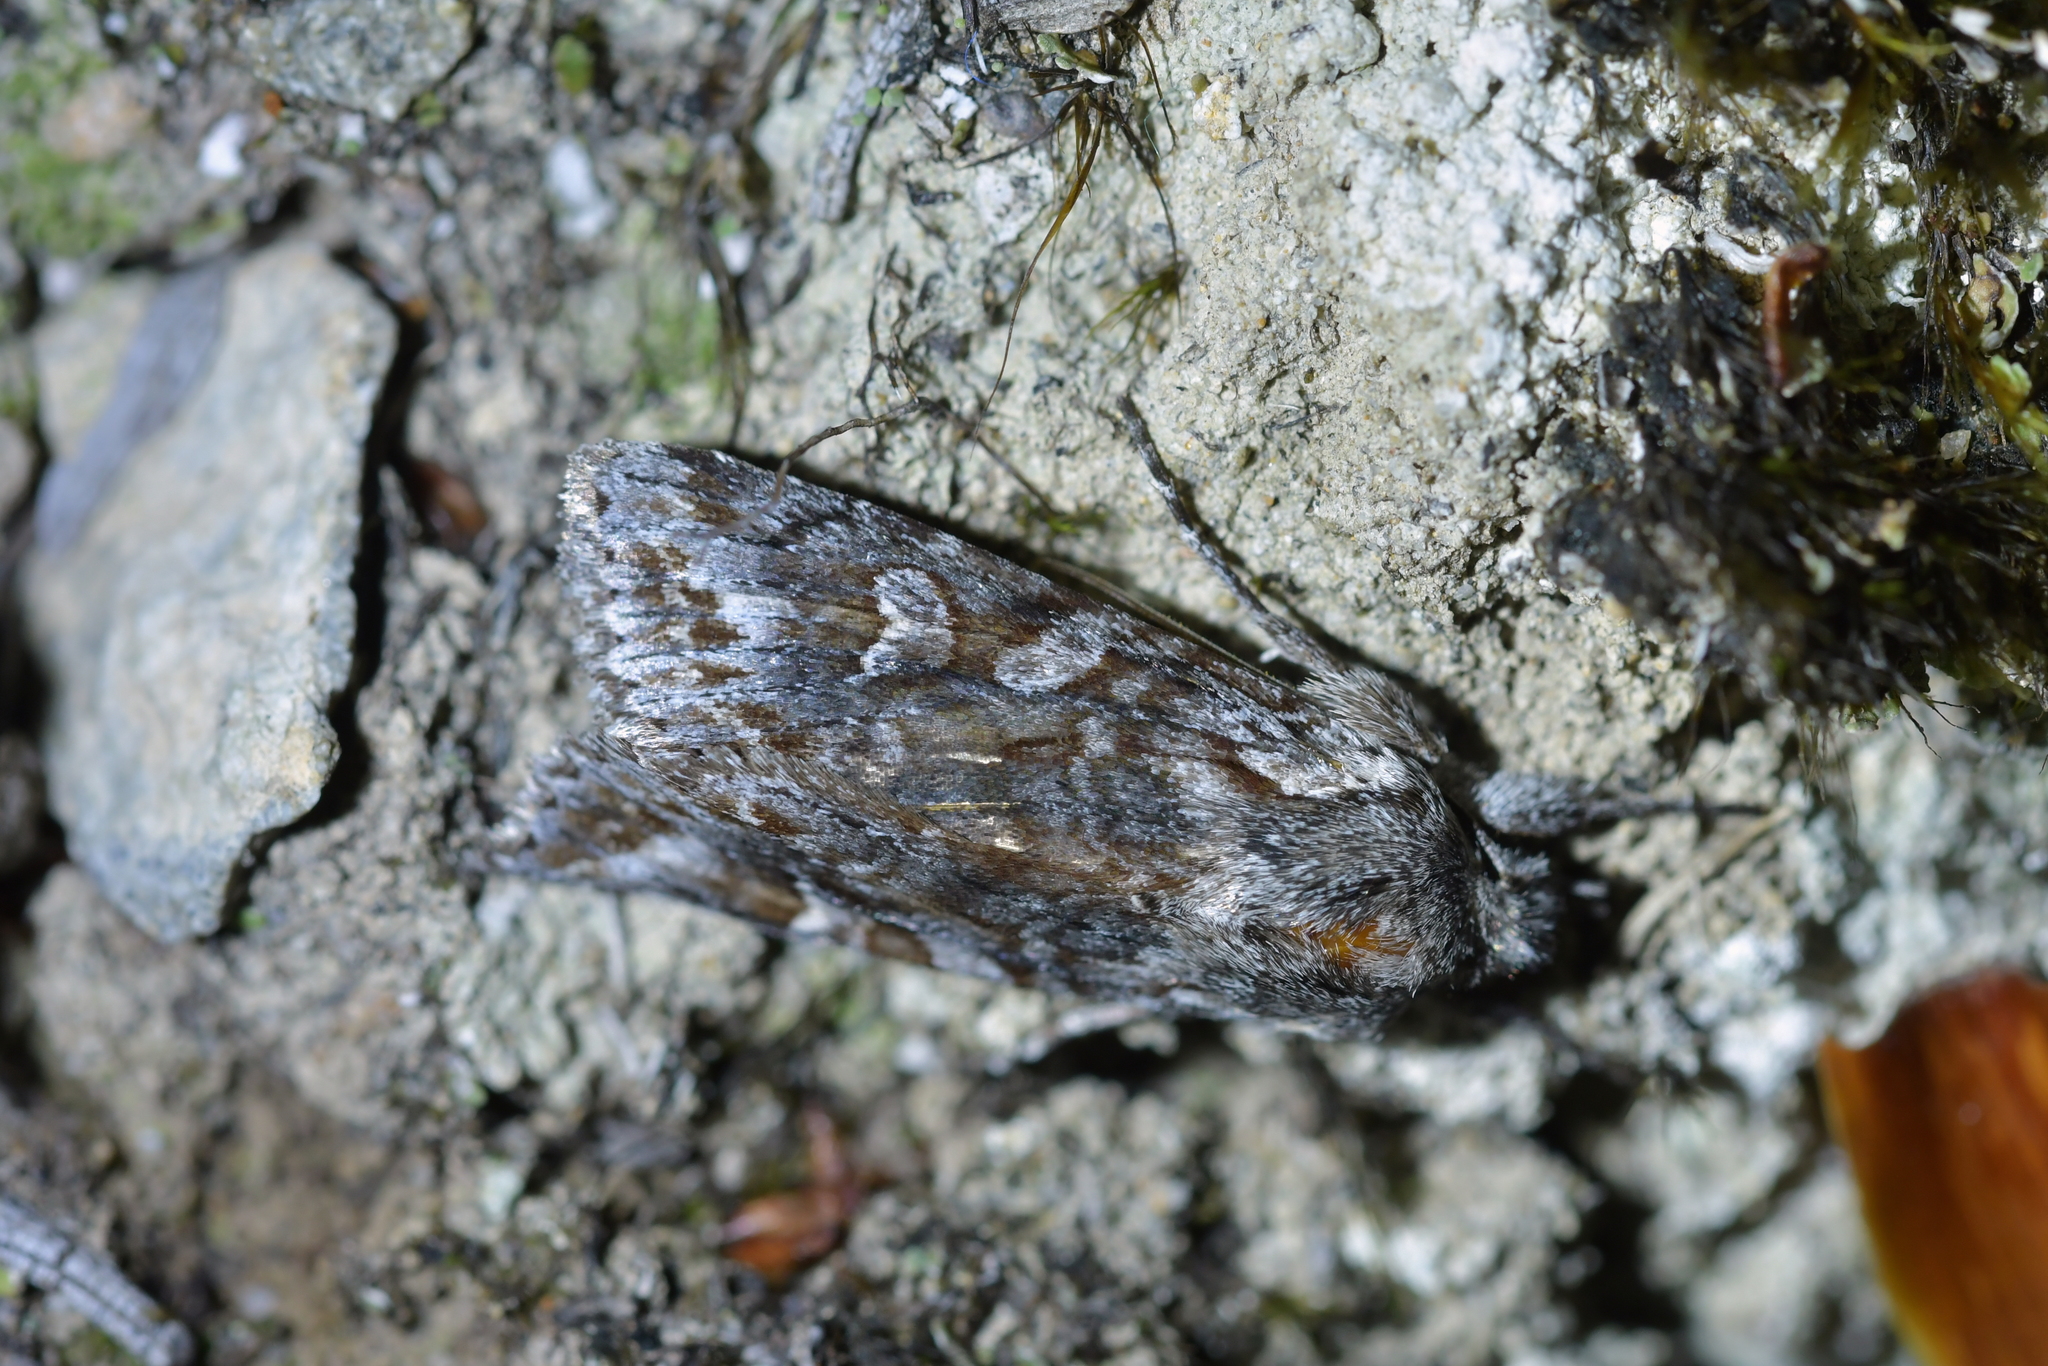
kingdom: Animalia
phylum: Arthropoda
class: Insecta
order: Lepidoptera
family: Noctuidae
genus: Physetica
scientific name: Physetica longstaffii
